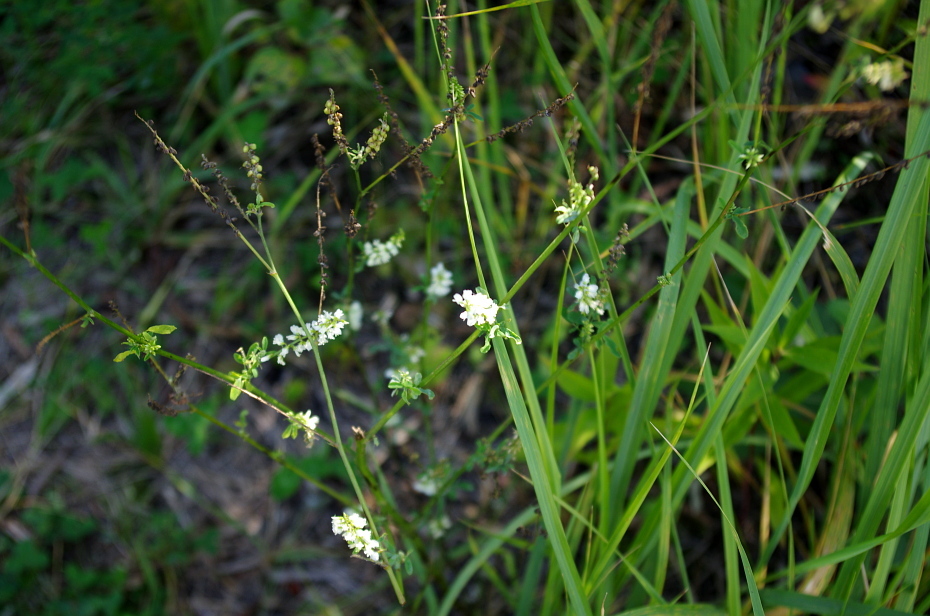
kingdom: Plantae
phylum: Tracheophyta
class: Magnoliopsida
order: Fabales
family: Fabaceae
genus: Melilotus
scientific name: Melilotus albus
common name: White melilot
